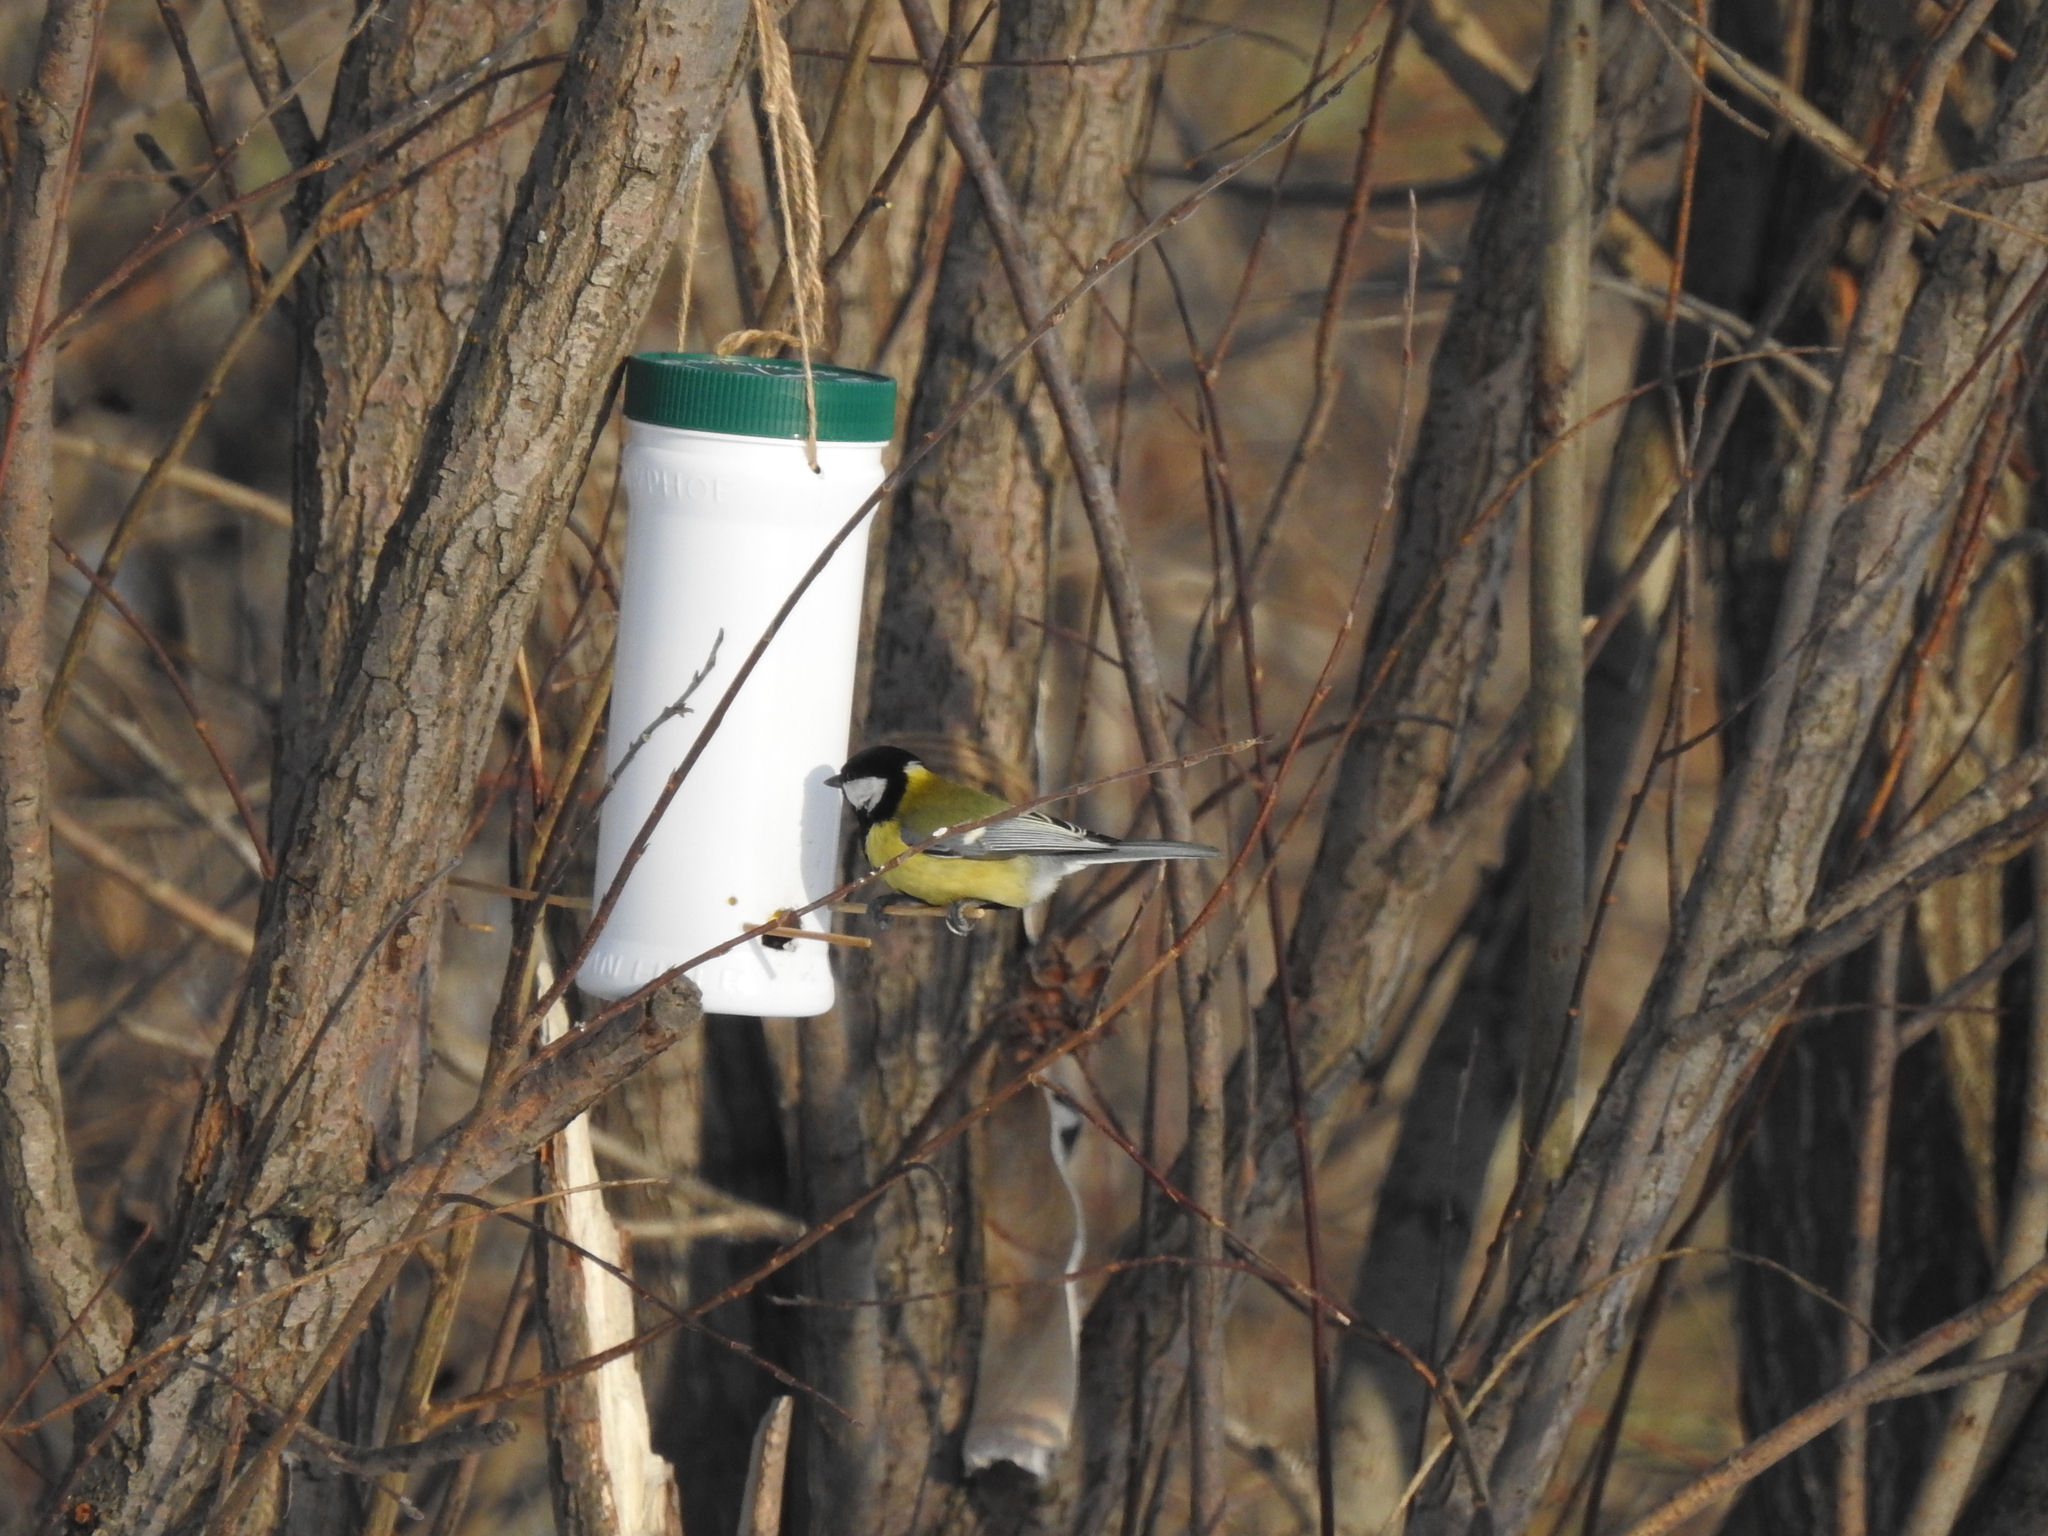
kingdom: Animalia
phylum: Chordata
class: Aves
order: Passeriformes
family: Paridae
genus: Parus
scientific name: Parus major
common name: Great tit
